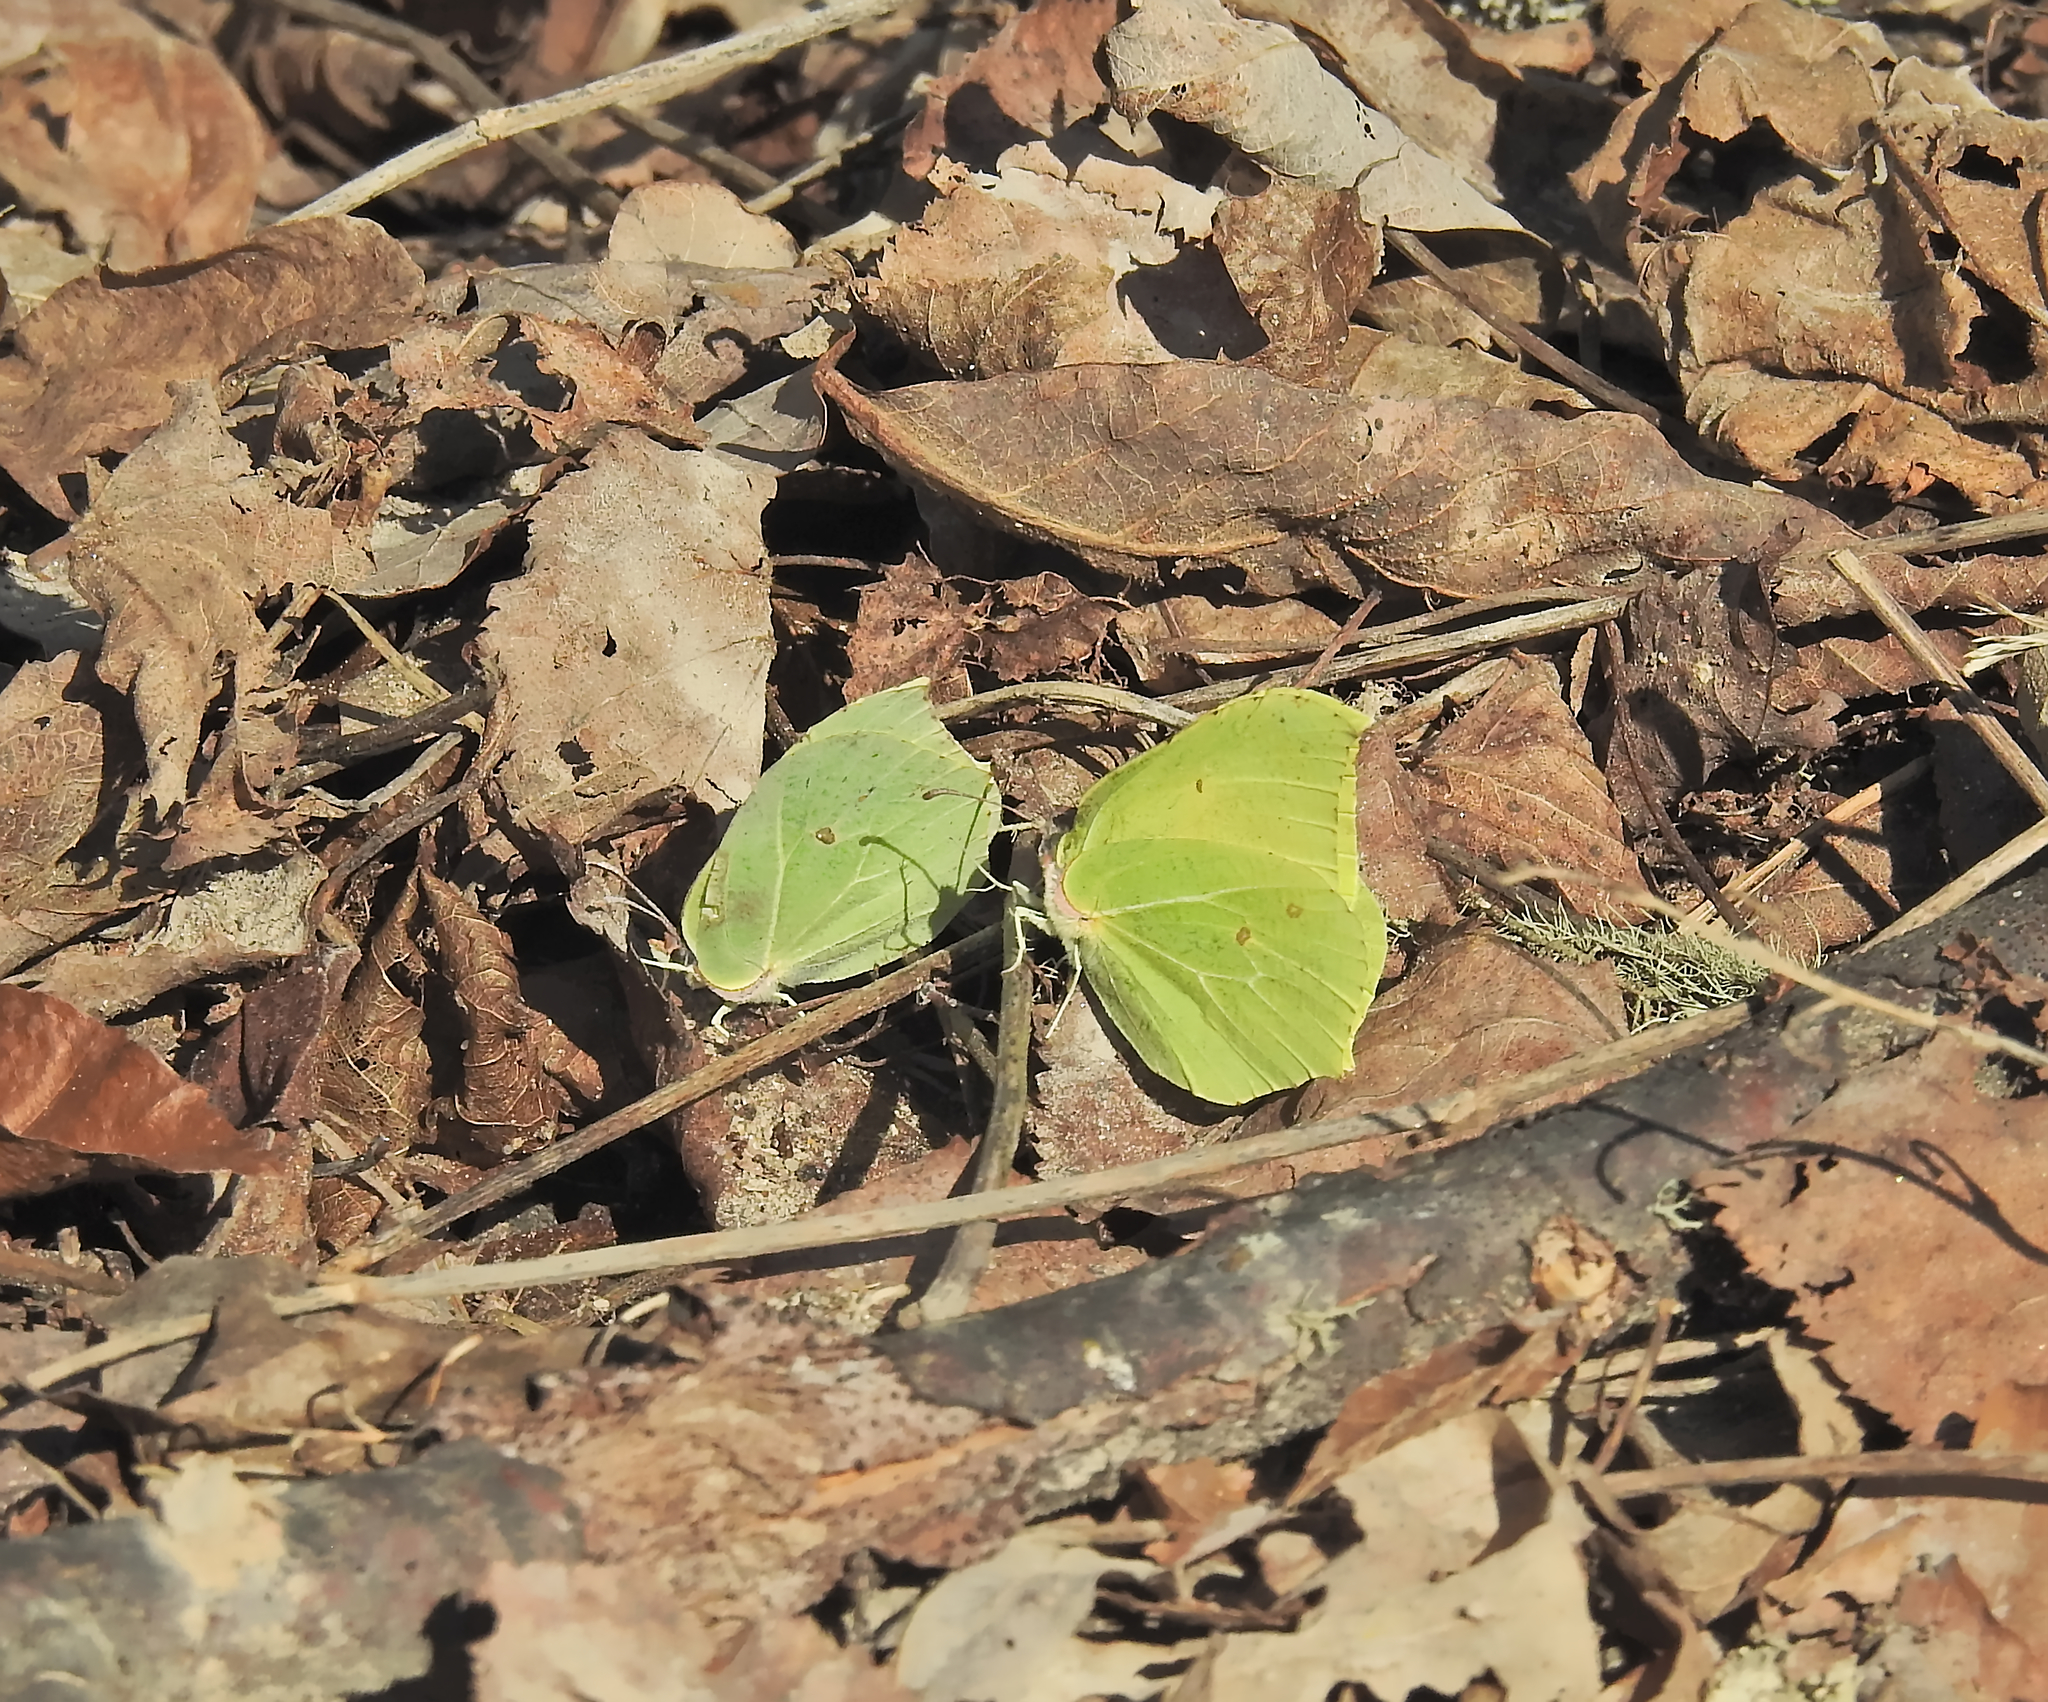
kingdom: Animalia
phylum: Arthropoda
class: Insecta
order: Lepidoptera
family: Pieridae
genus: Gonepteryx
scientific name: Gonepteryx rhamni
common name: Brimstone
